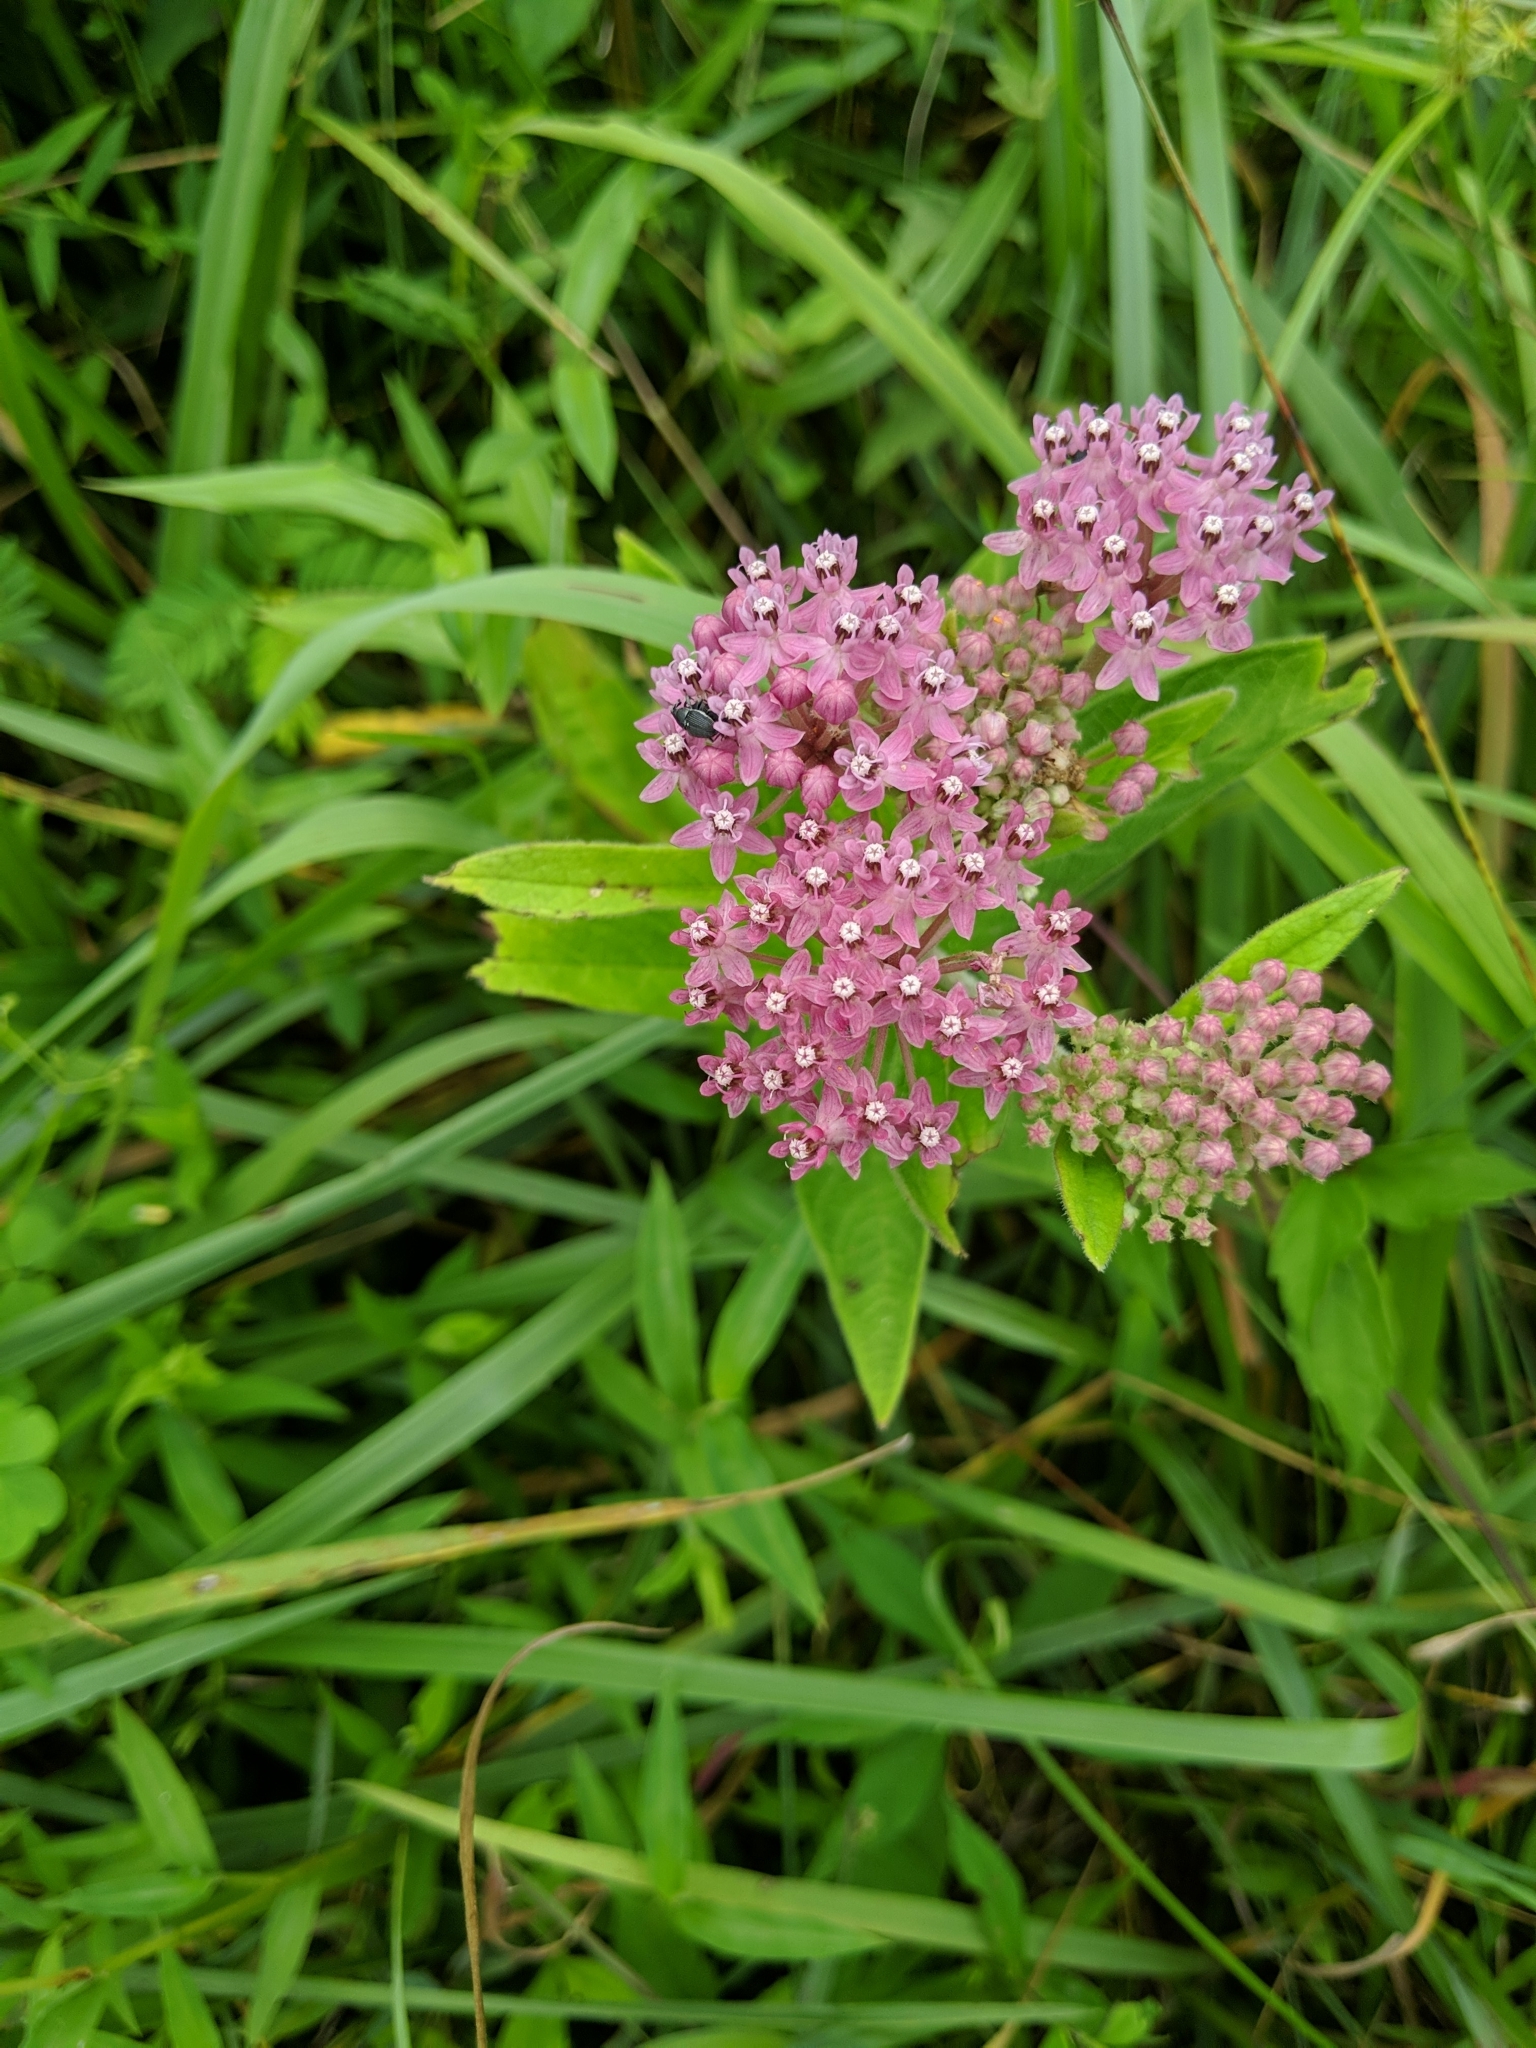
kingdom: Plantae
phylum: Tracheophyta
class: Magnoliopsida
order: Gentianales
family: Apocynaceae
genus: Asclepias
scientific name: Asclepias incarnata
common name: Swamp milkweed
